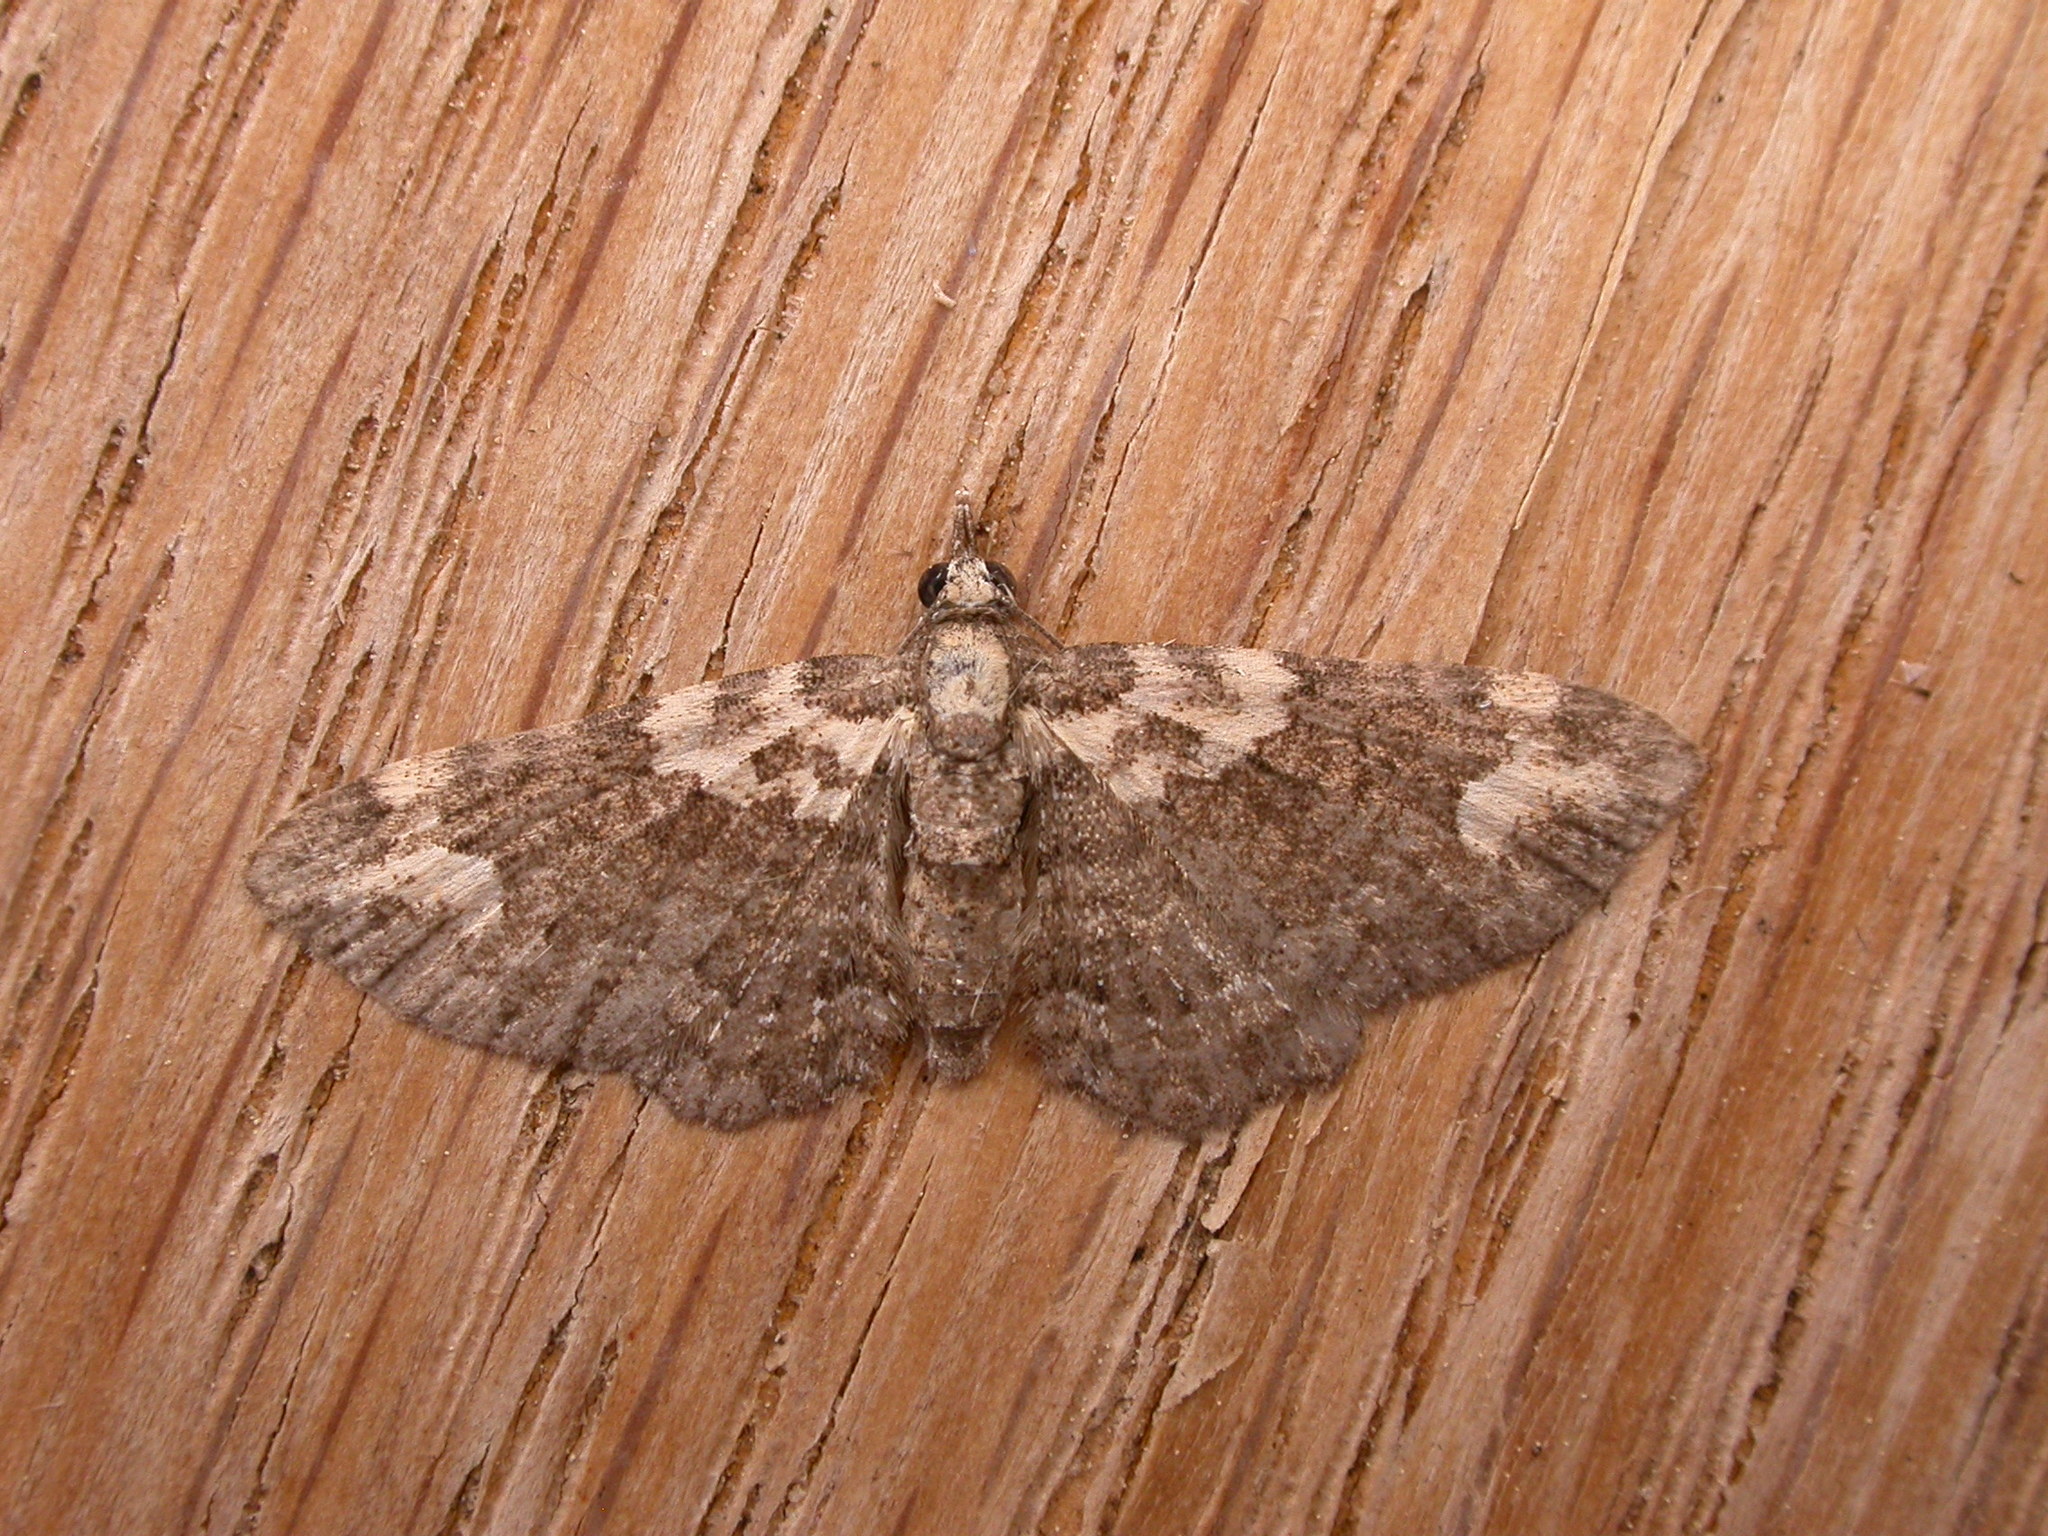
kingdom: Animalia
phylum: Arthropoda
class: Insecta
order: Lepidoptera
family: Geometridae
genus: Chloroclystis
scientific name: Chloroclystis pallidiplaga
